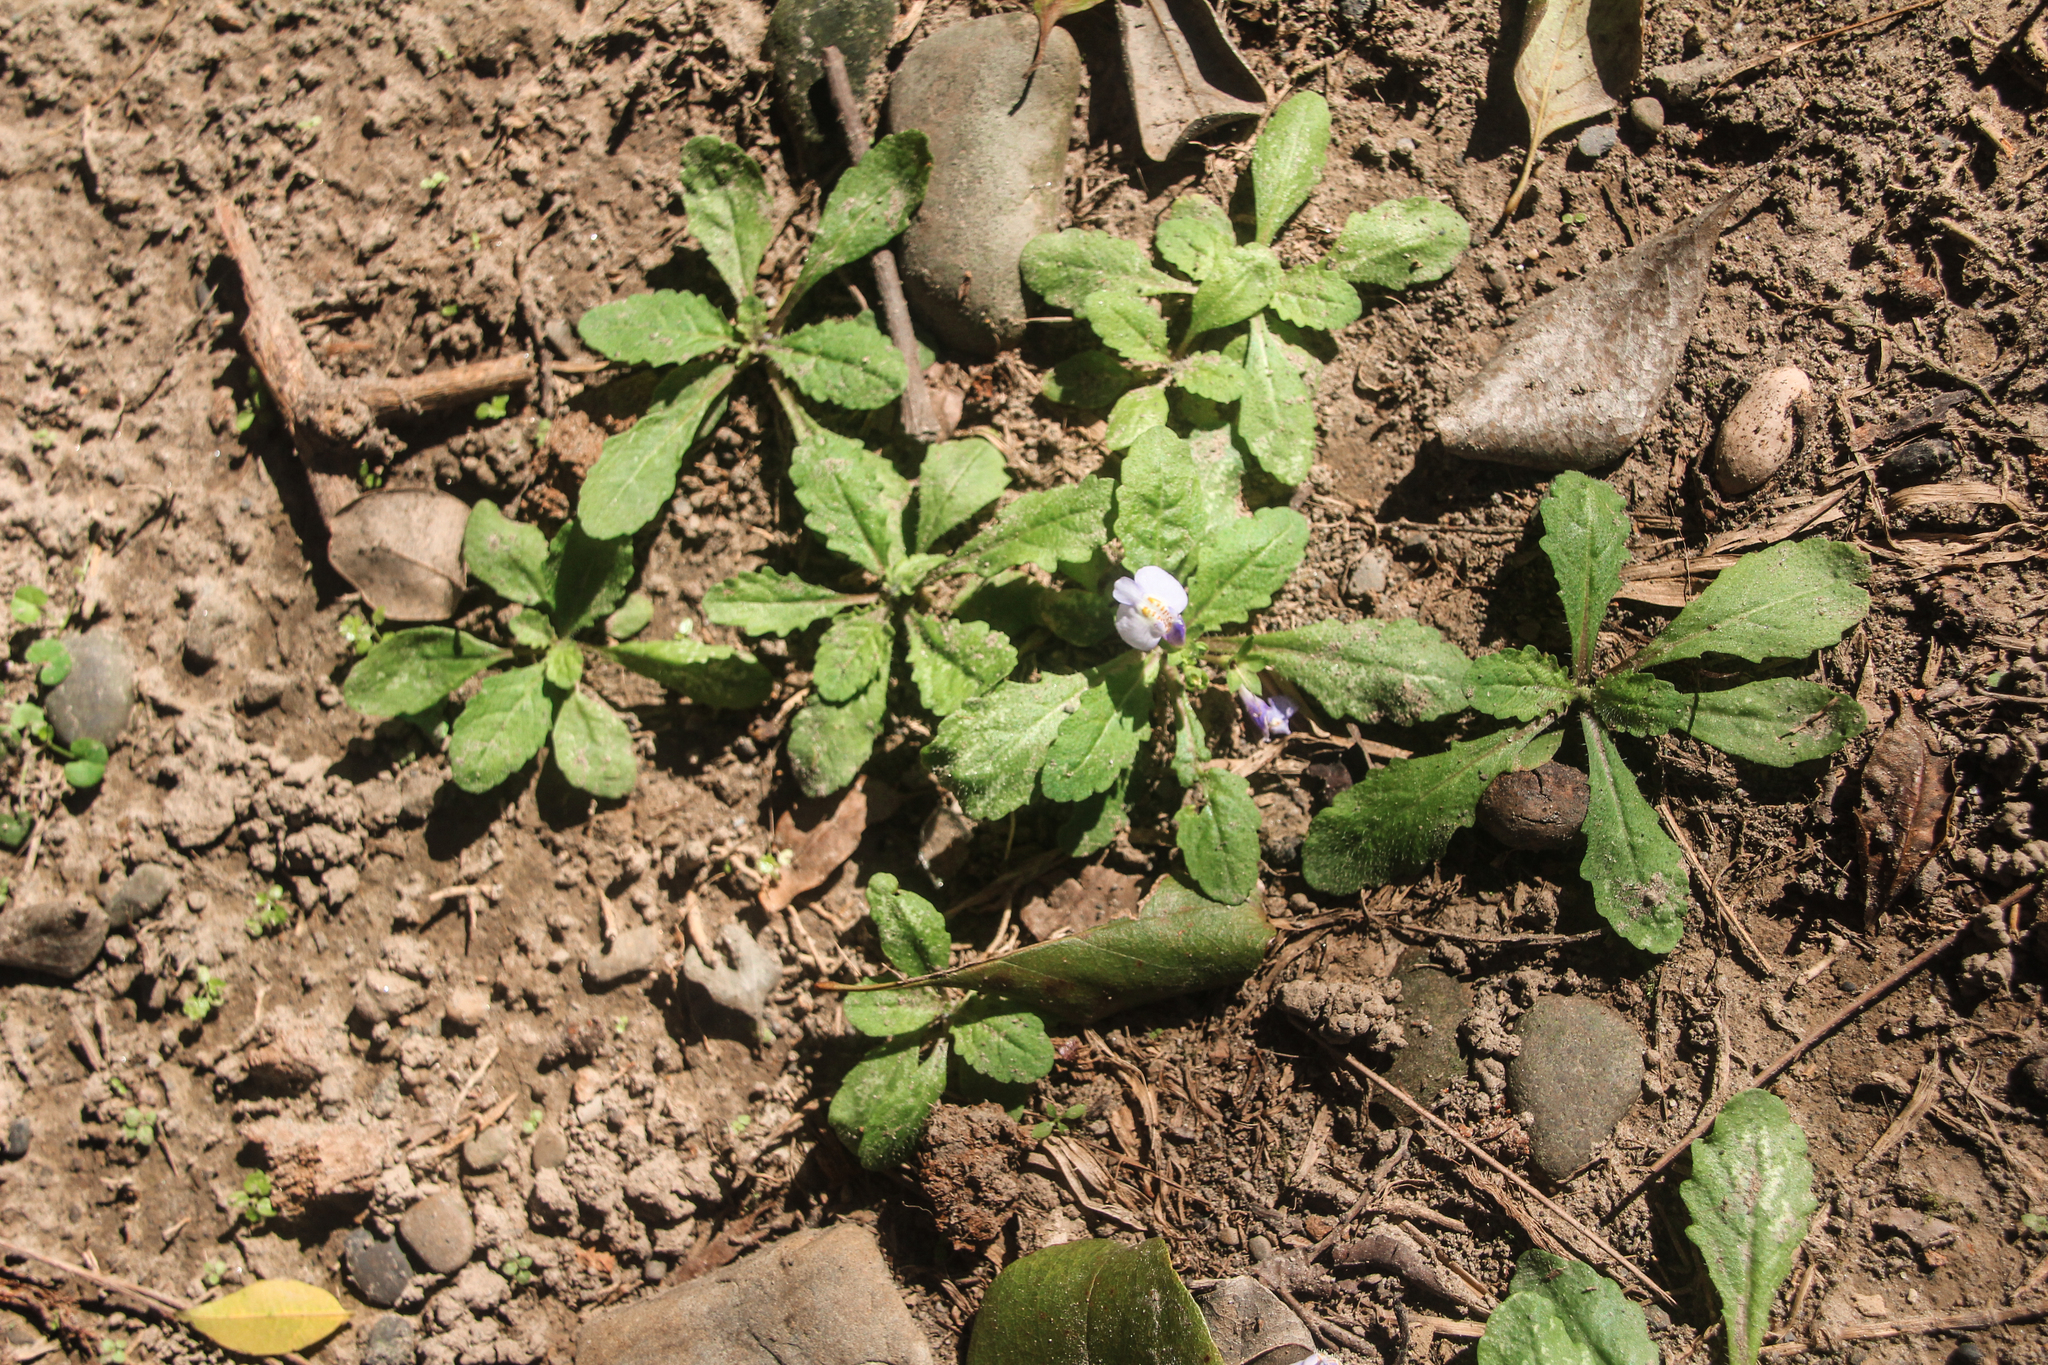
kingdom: Plantae
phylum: Tracheophyta
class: Magnoliopsida
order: Lamiales
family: Mazaceae
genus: Mazus
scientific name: Mazus pumilus
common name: Japanese mazus
